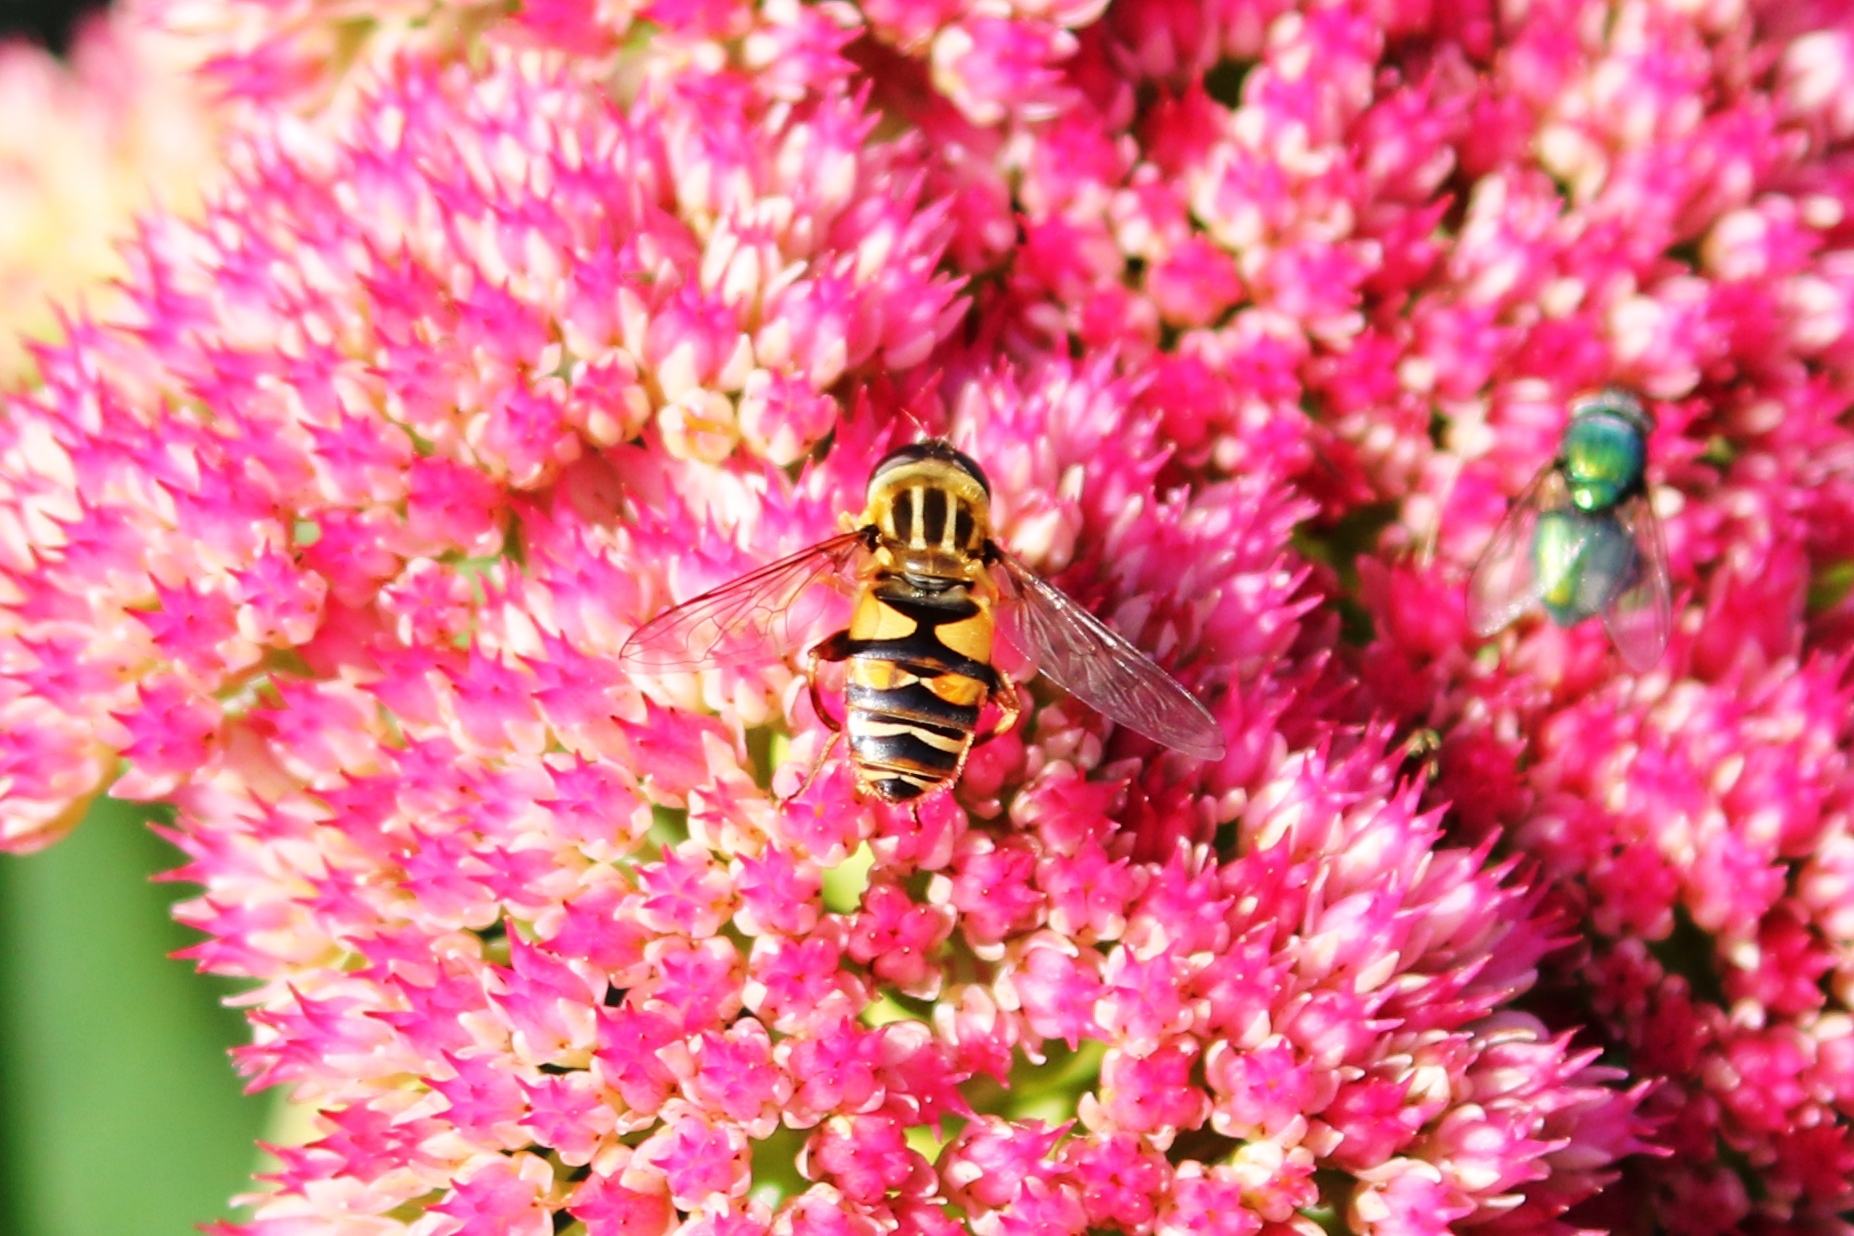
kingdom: Animalia
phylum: Arthropoda
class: Insecta
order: Diptera
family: Syrphidae
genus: Helophilus
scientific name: Helophilus fasciatus
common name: Narrow-headed marsh fly
